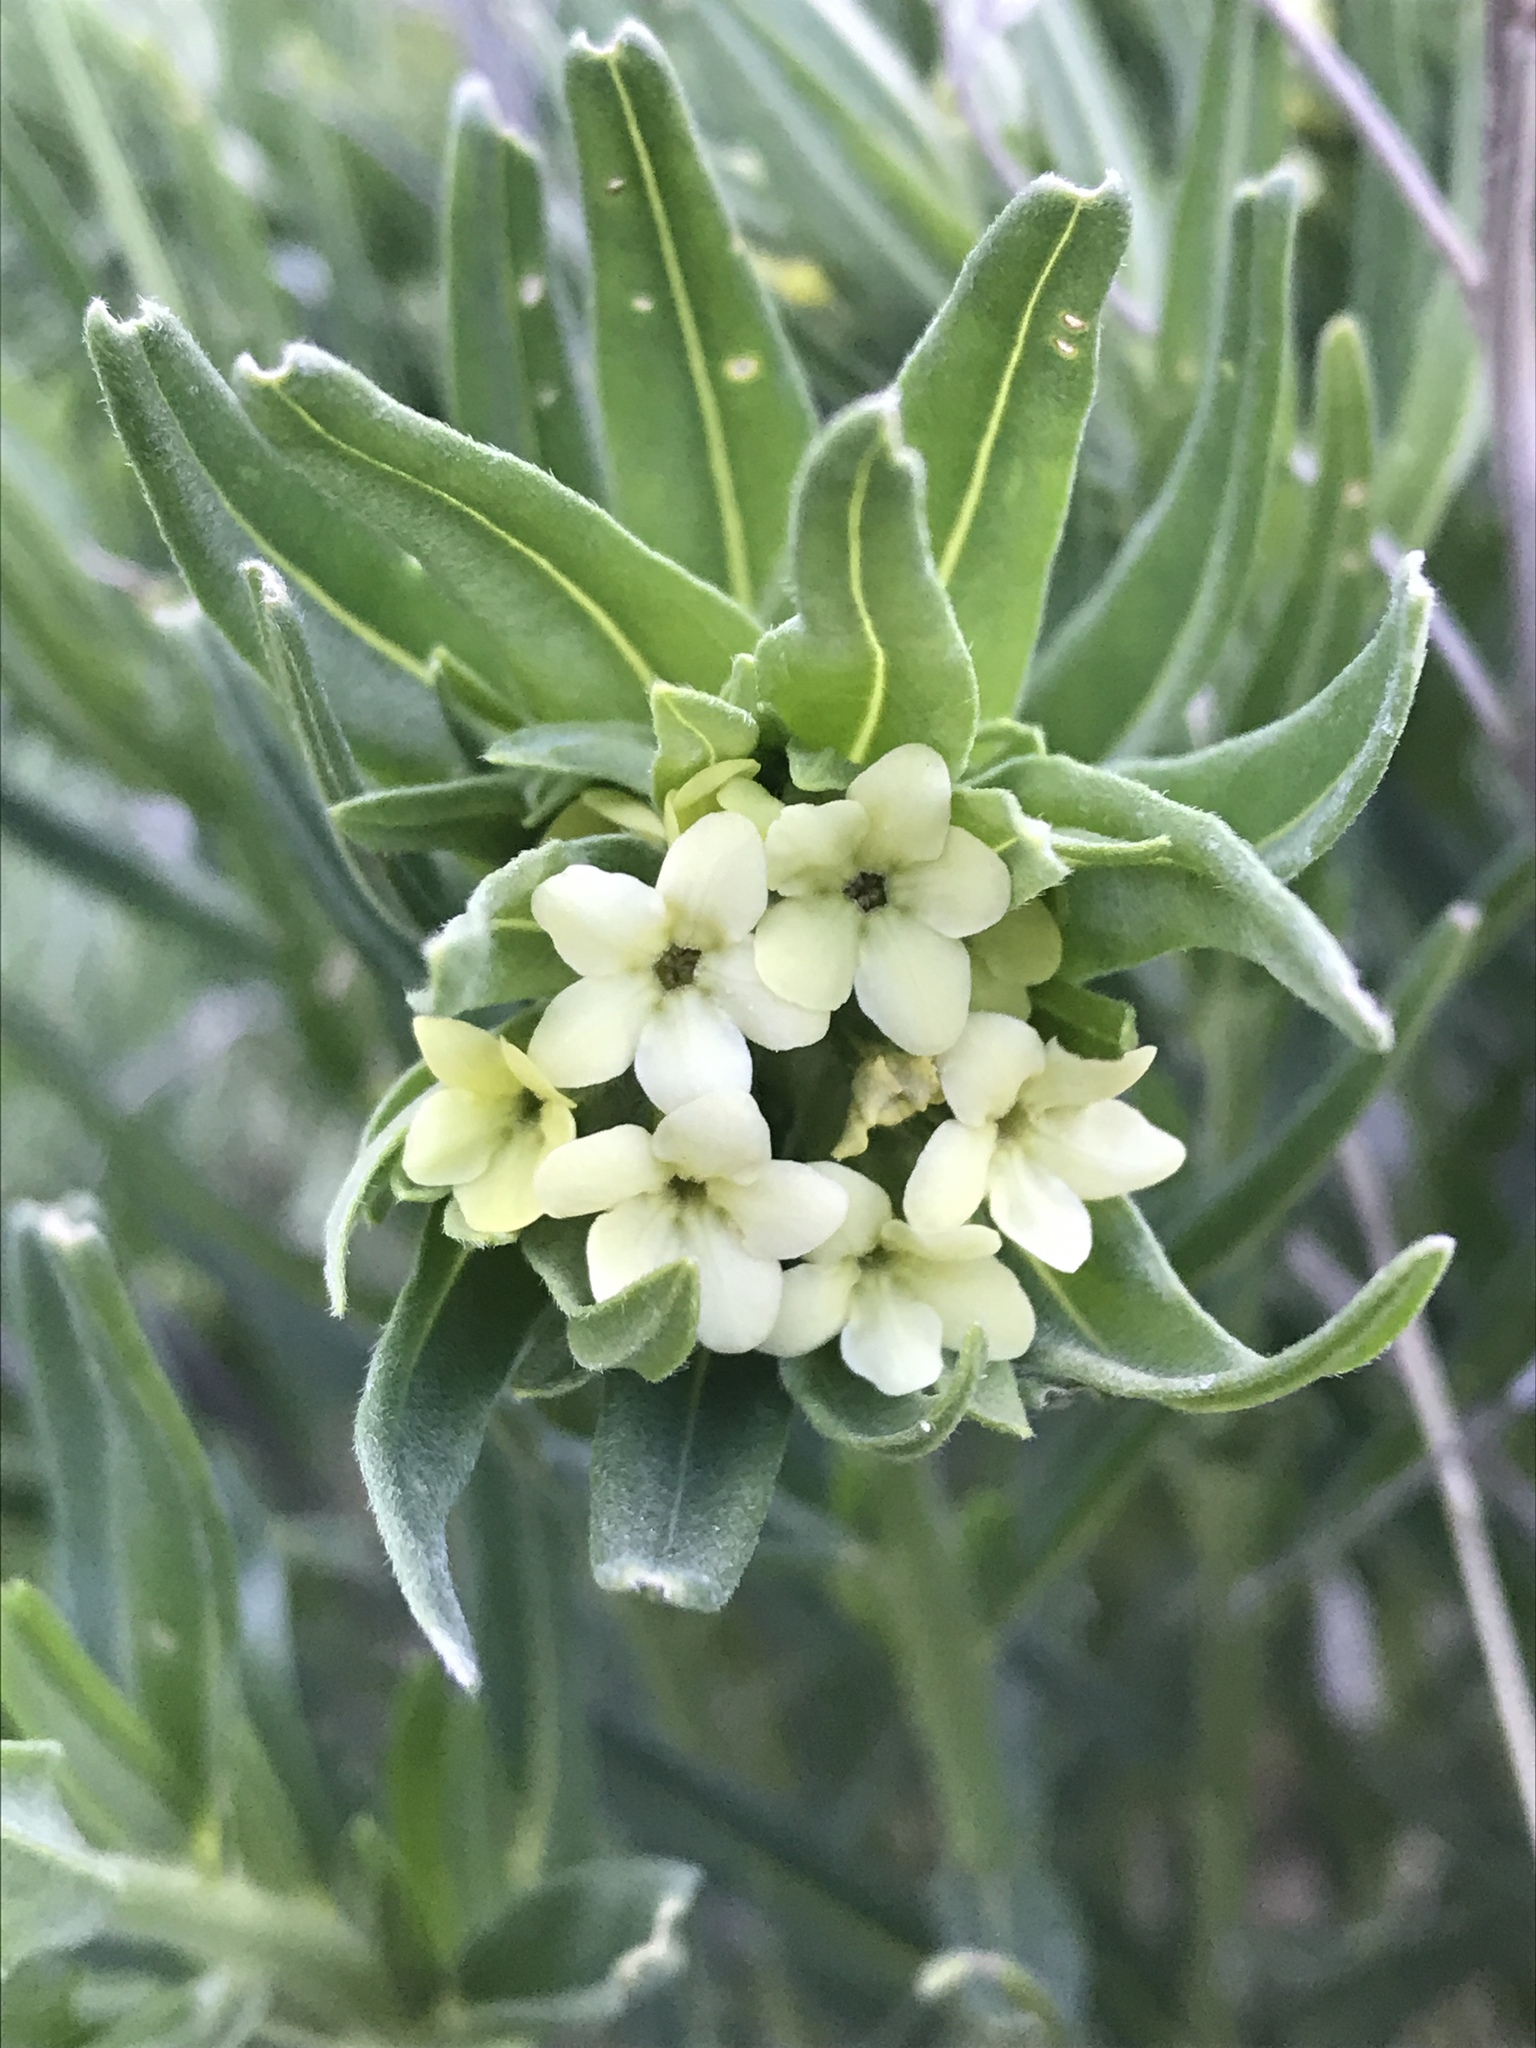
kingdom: Plantae
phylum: Tracheophyta
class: Magnoliopsida
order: Boraginales
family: Boraginaceae
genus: Lithospermum
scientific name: Lithospermum ruderale
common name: Western gromwell
